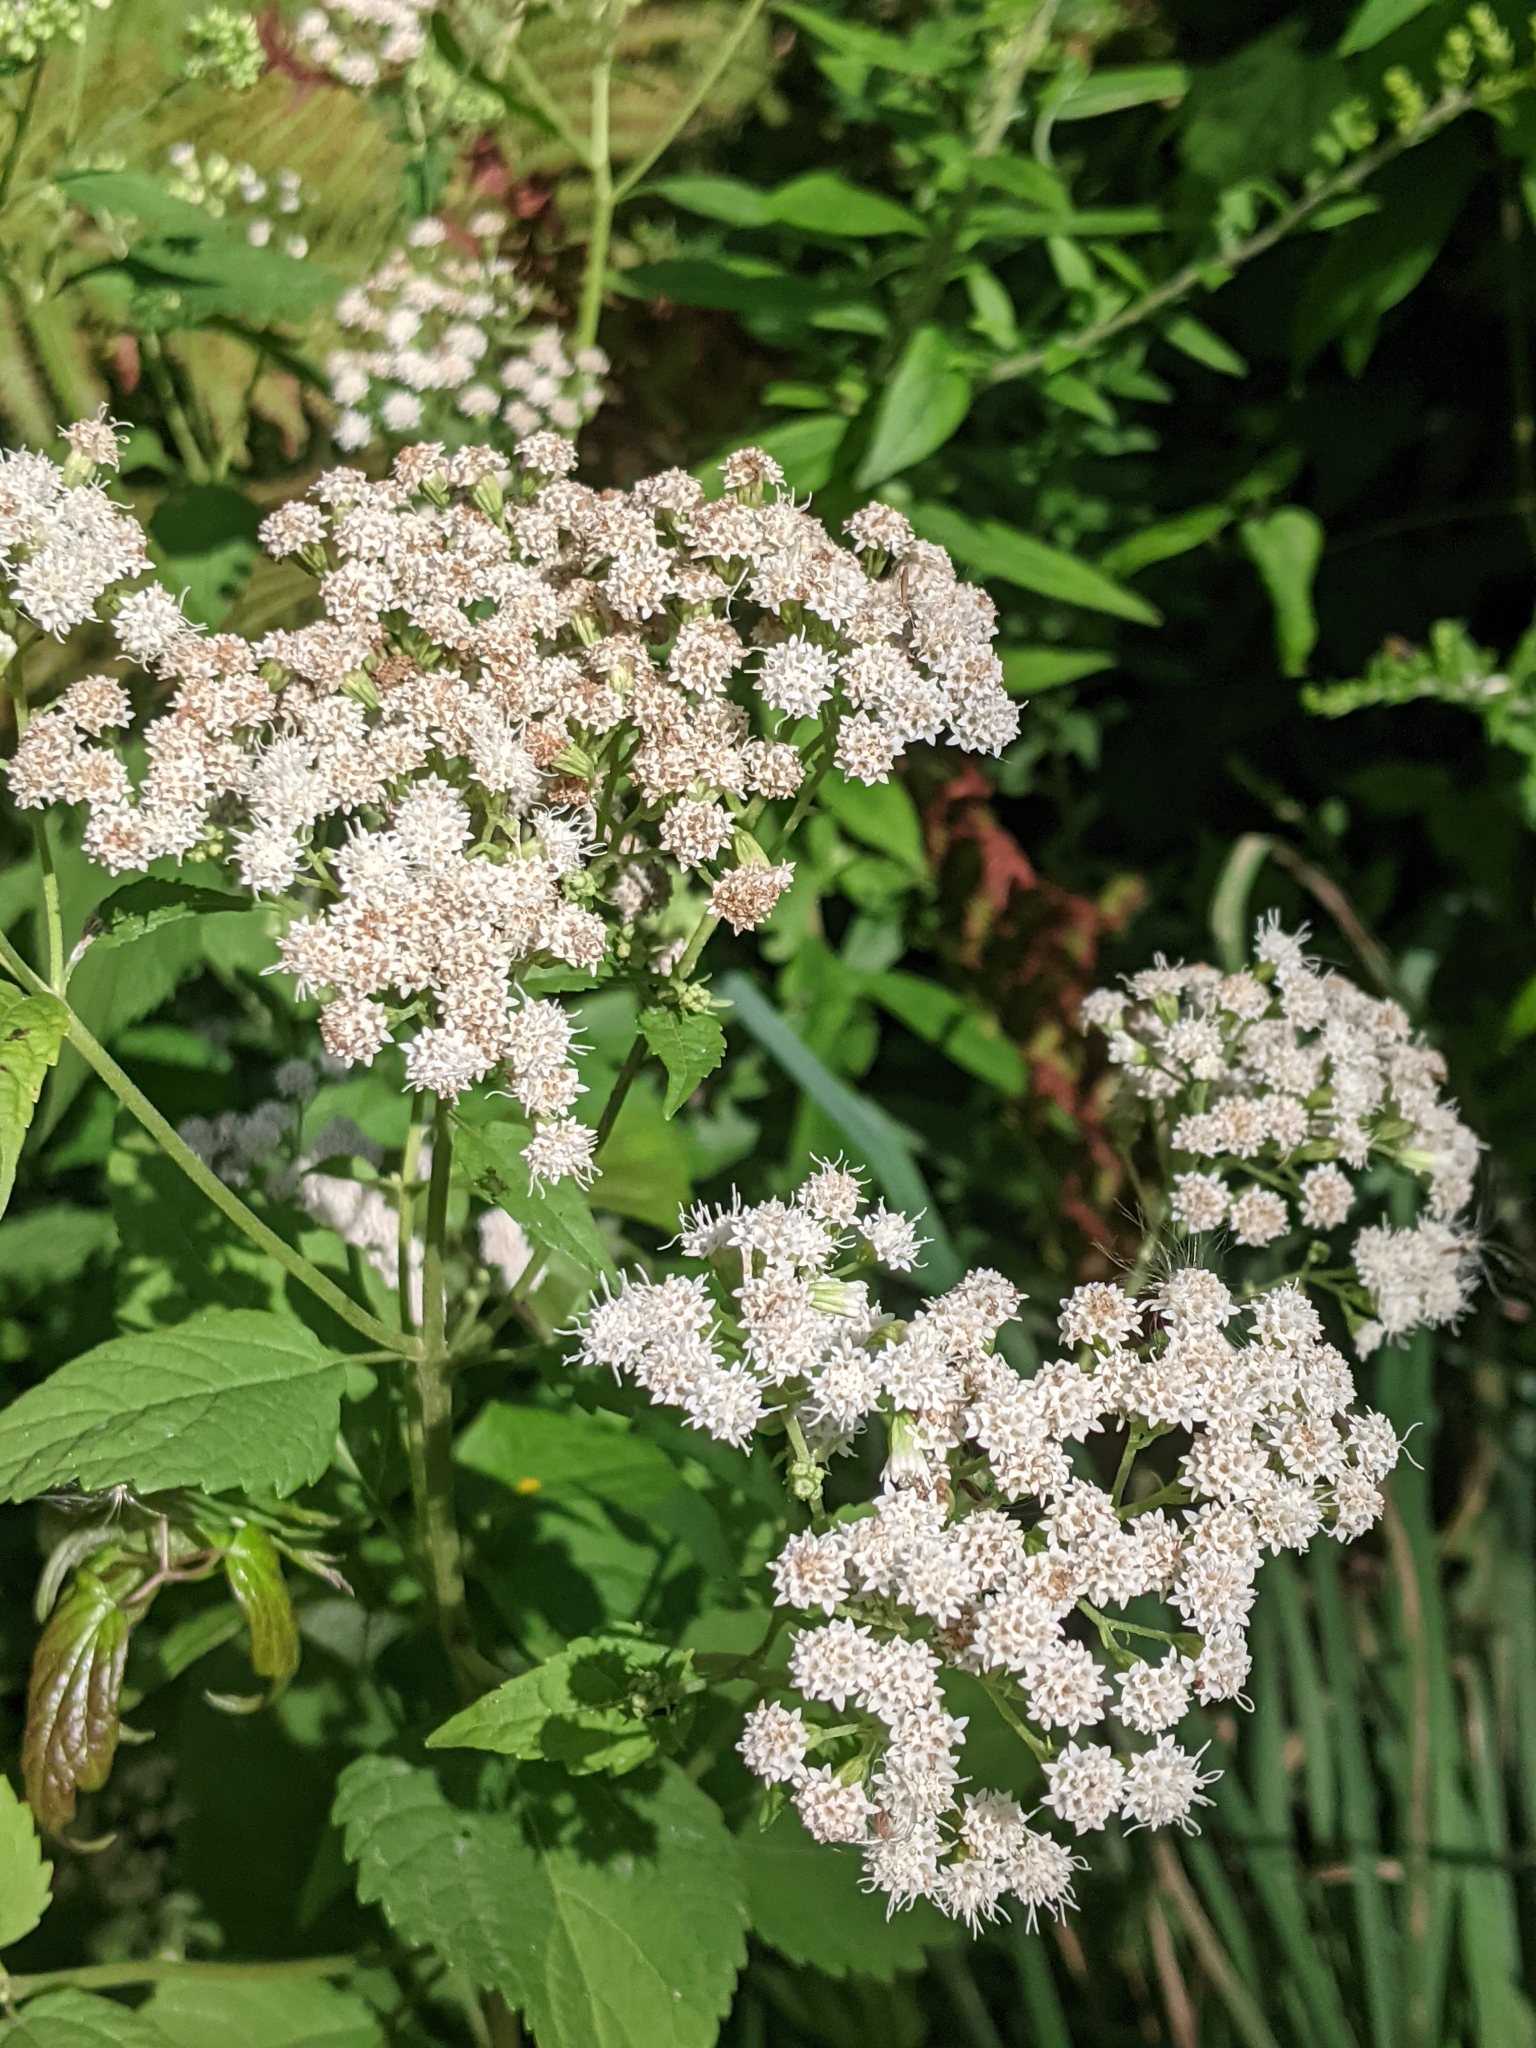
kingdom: Plantae
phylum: Tracheophyta
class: Magnoliopsida
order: Asterales
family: Asteraceae
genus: Ageratina
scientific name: Ageratina altissima
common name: White snakeroot
